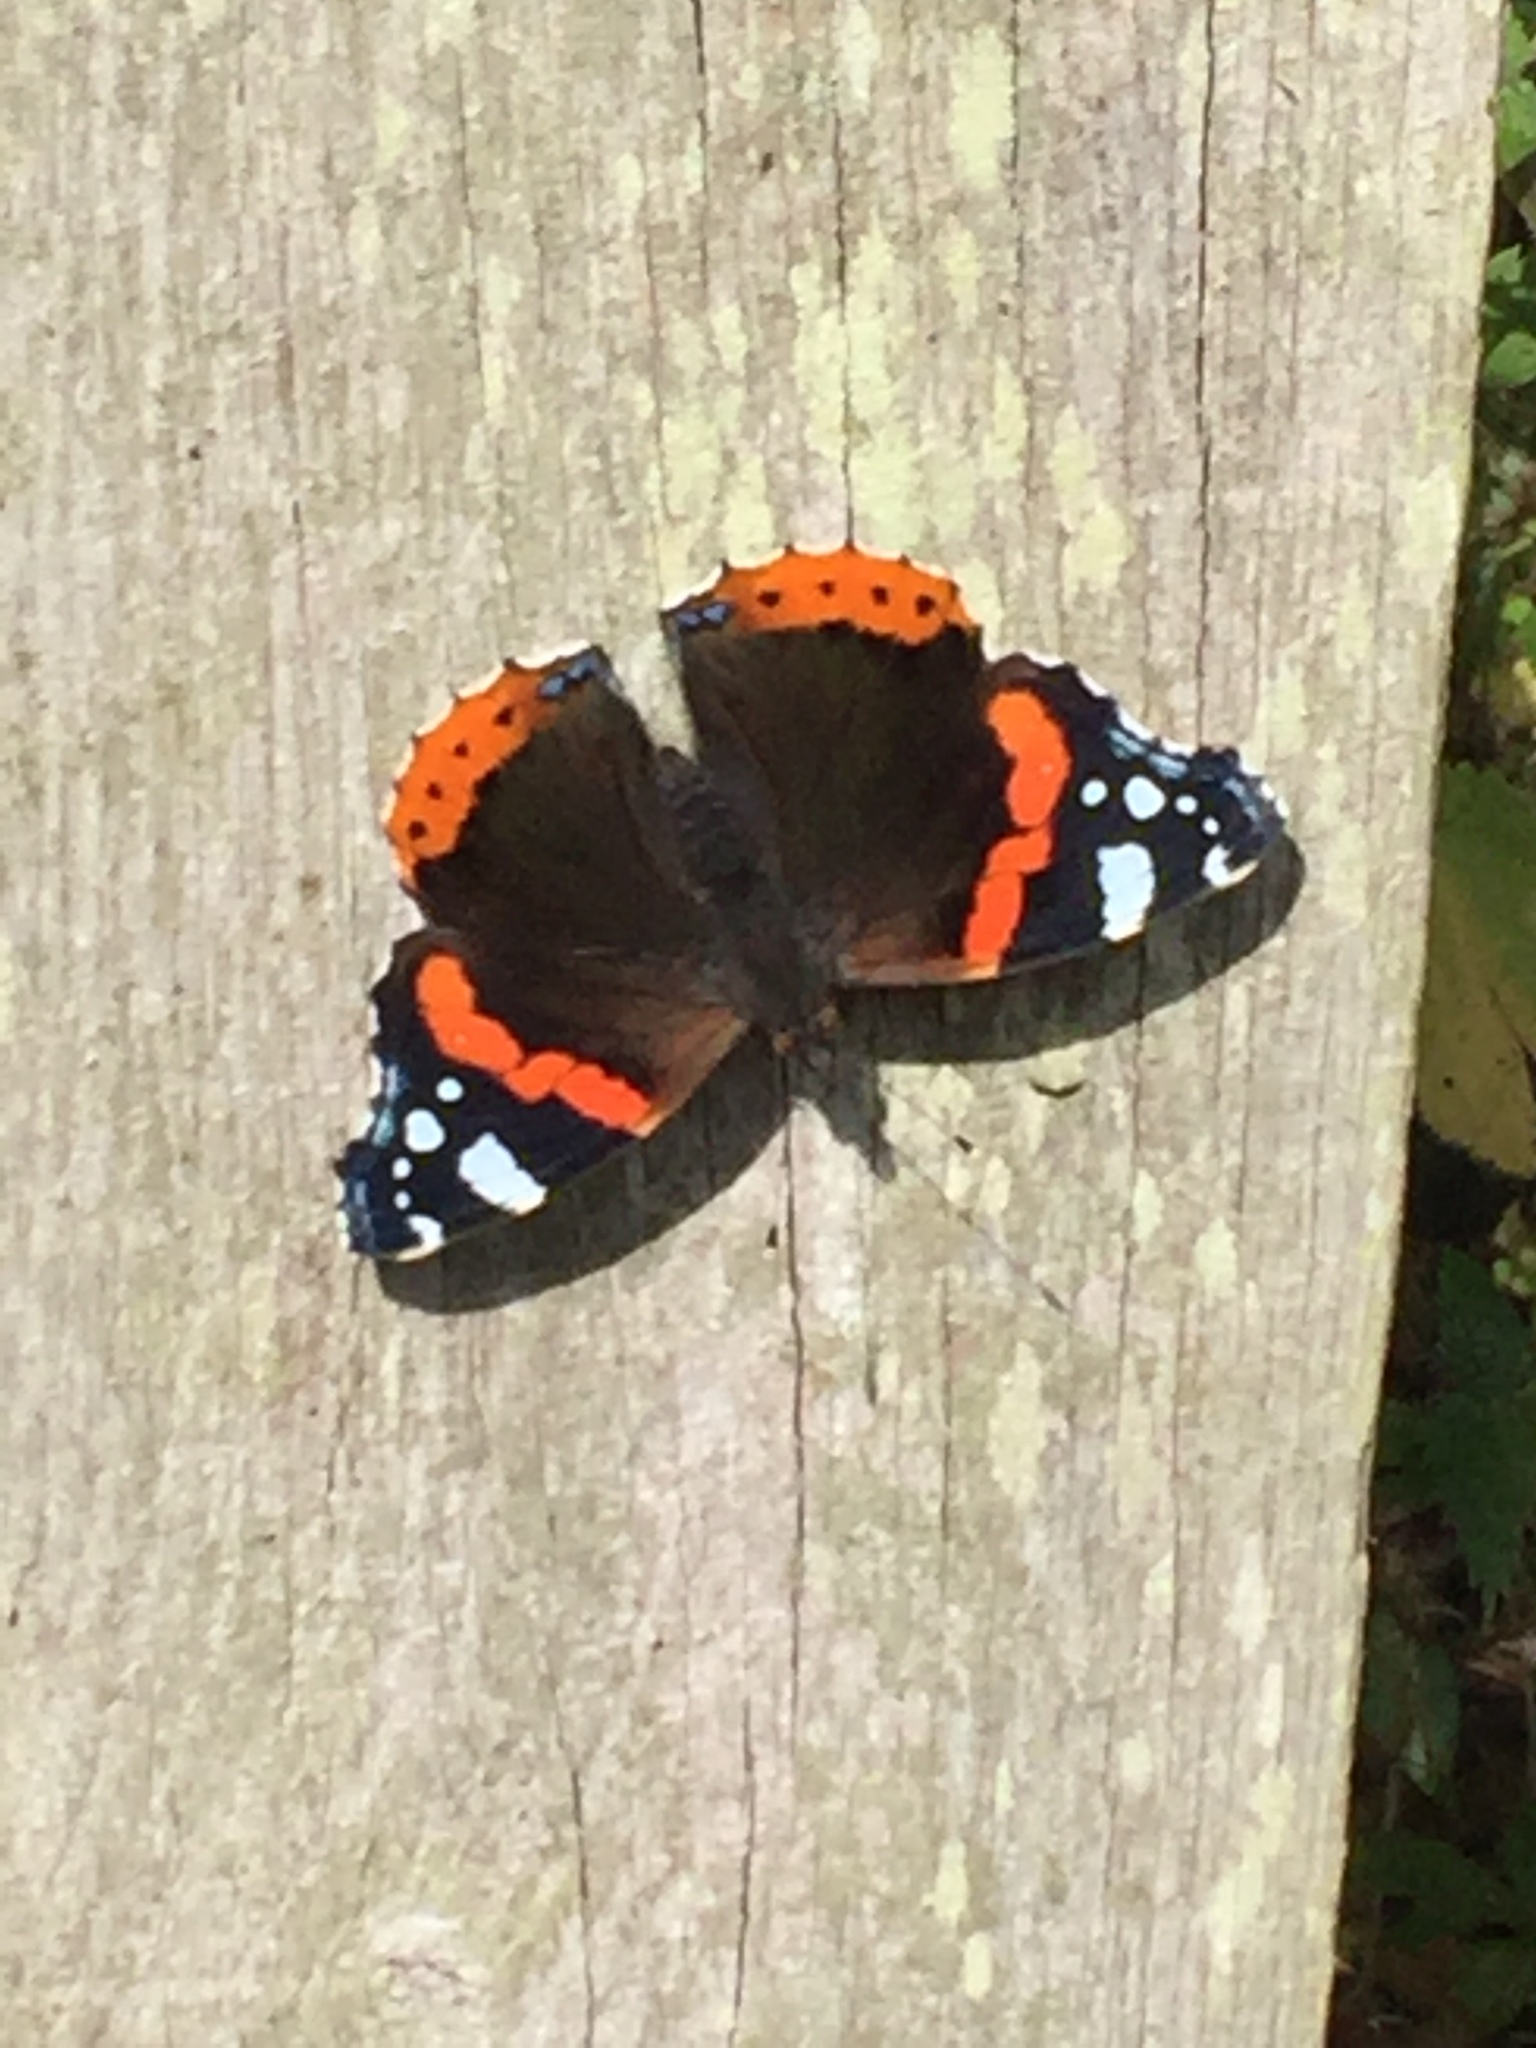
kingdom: Animalia
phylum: Arthropoda
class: Insecta
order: Lepidoptera
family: Nymphalidae
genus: Vanessa
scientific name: Vanessa atalanta
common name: Red admiral
